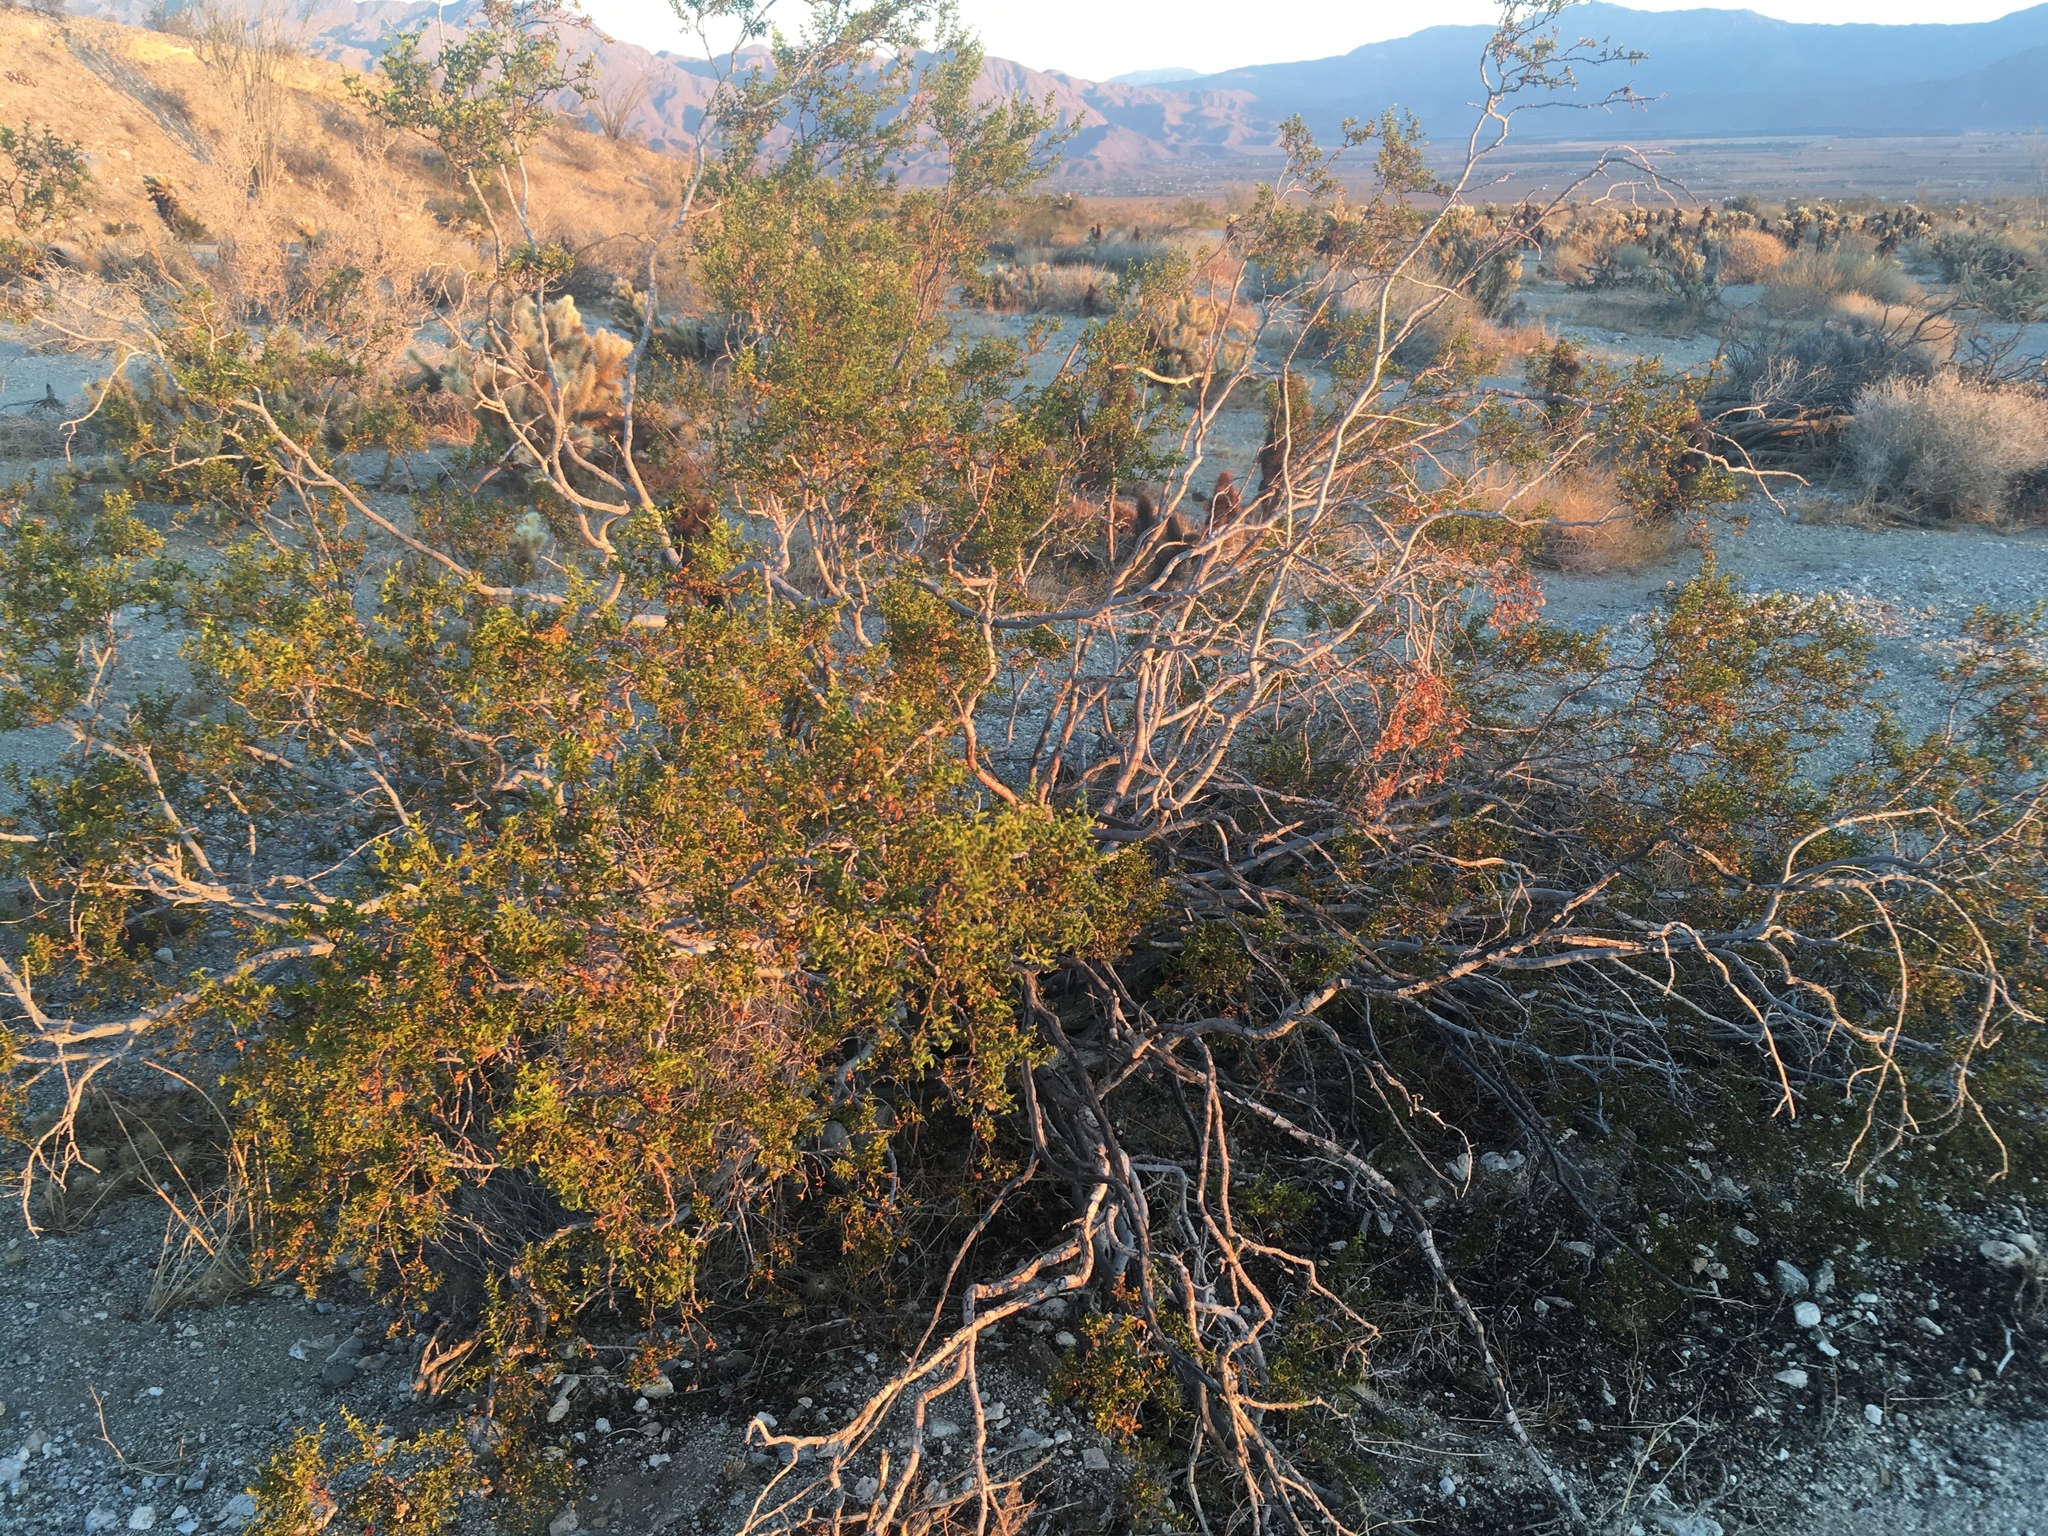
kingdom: Plantae
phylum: Tracheophyta
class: Magnoliopsida
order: Zygophyllales
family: Zygophyllaceae
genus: Larrea
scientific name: Larrea tridentata
